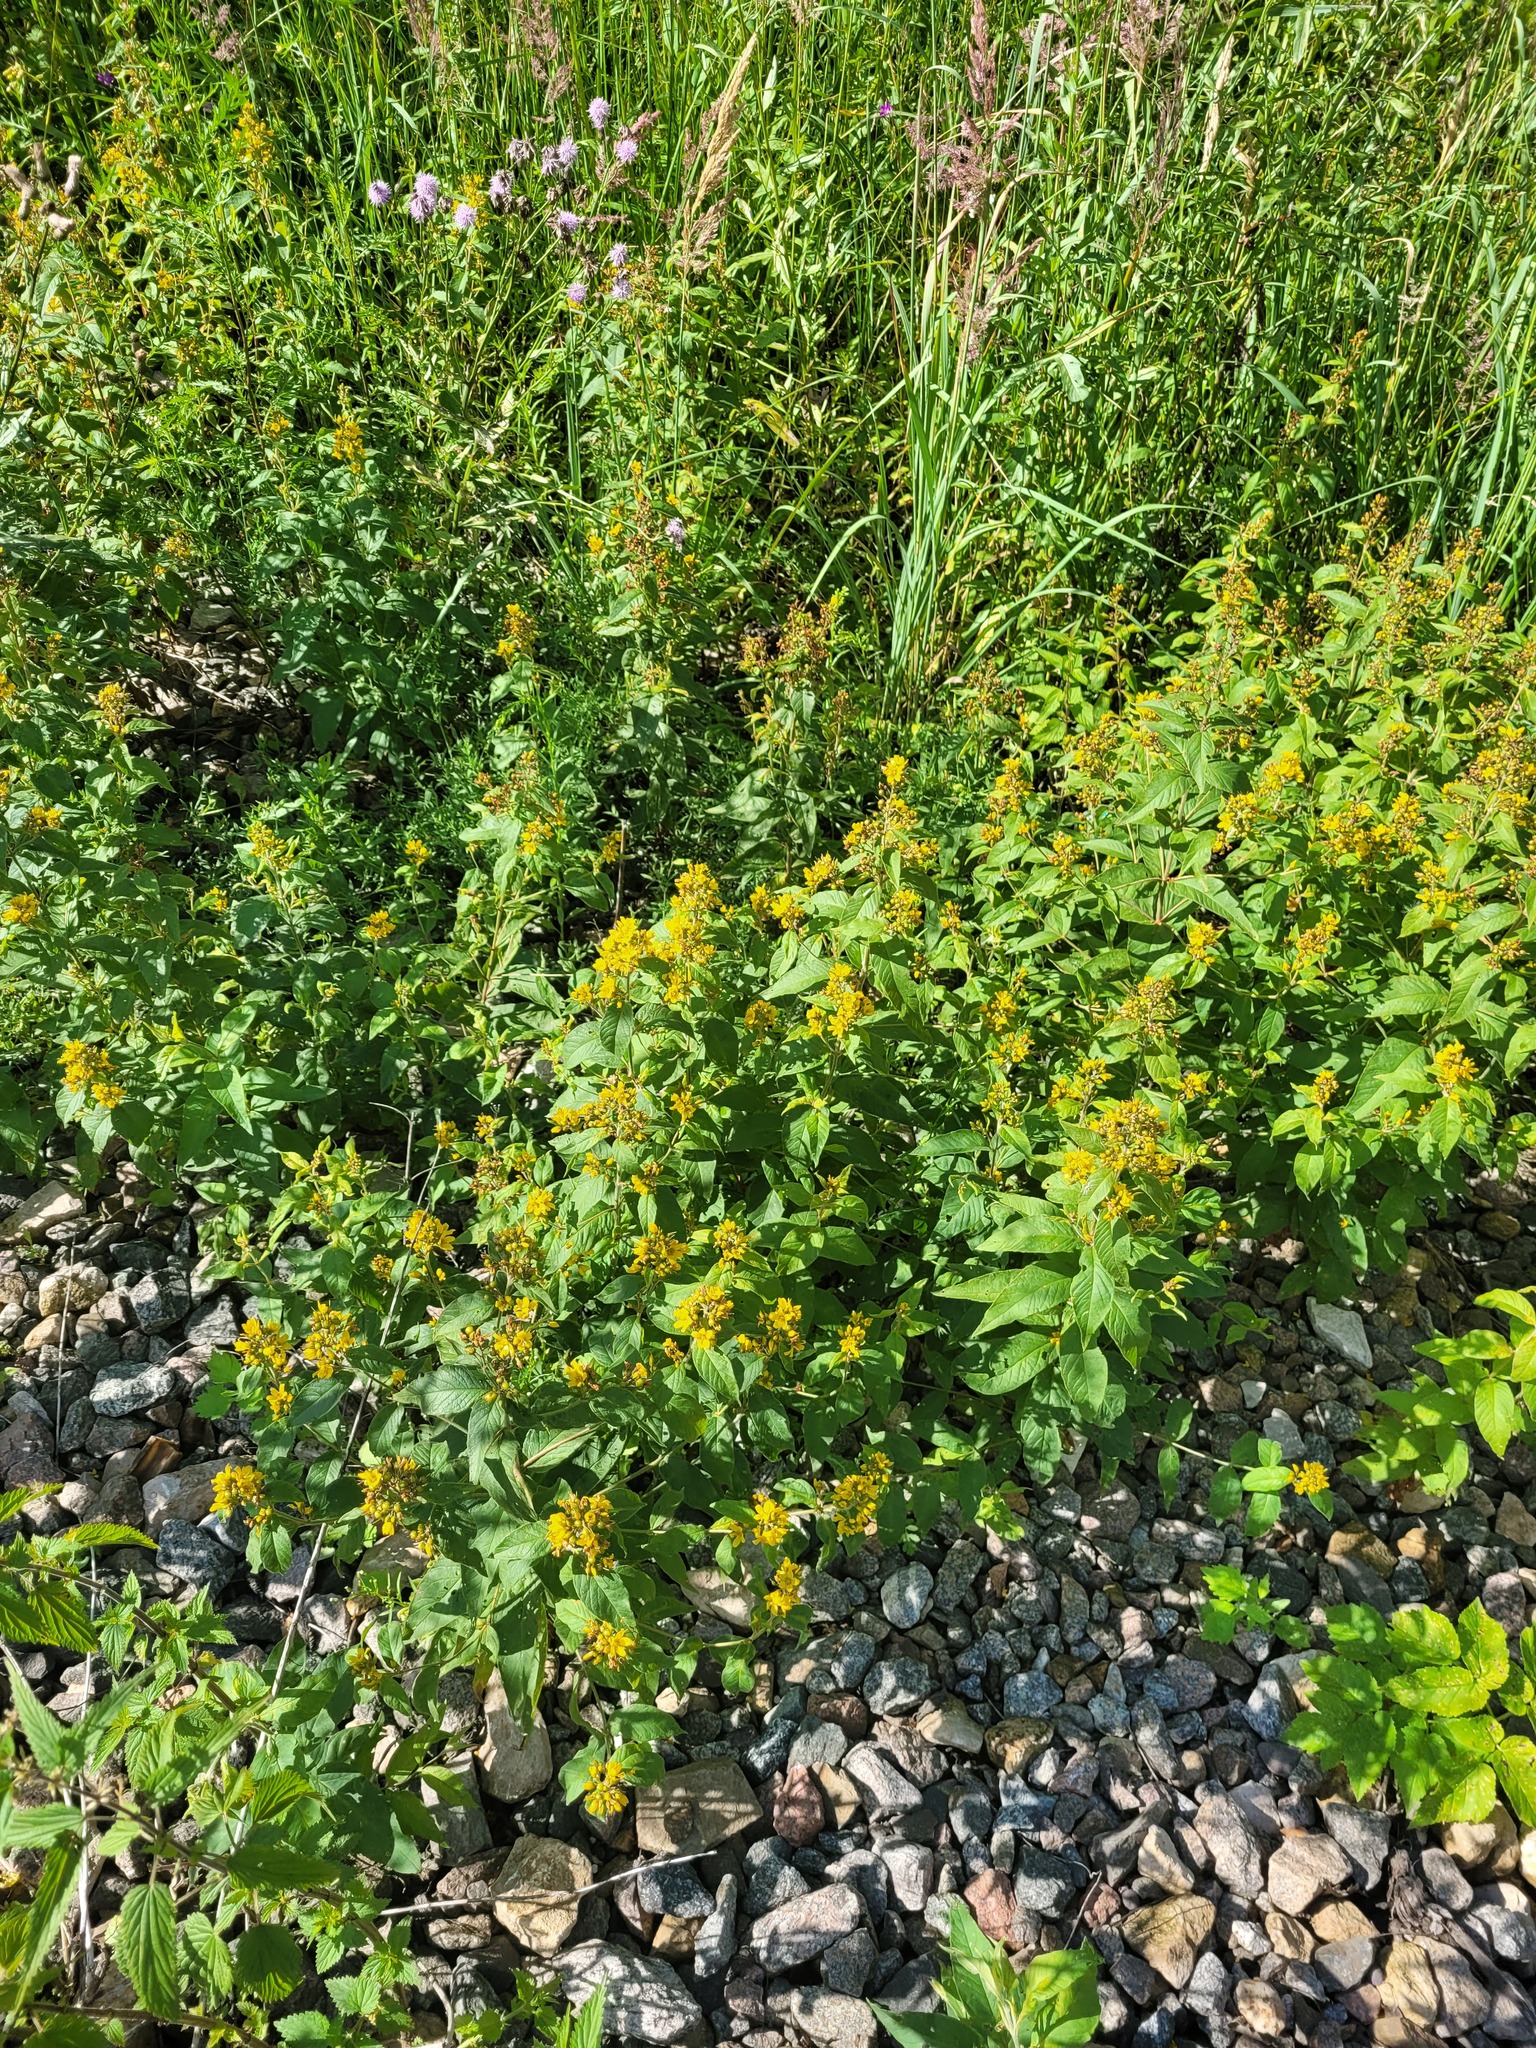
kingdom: Plantae
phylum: Tracheophyta
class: Magnoliopsida
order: Ericales
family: Primulaceae
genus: Lysimachia
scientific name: Lysimachia vulgaris
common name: Yellow loosestrife
